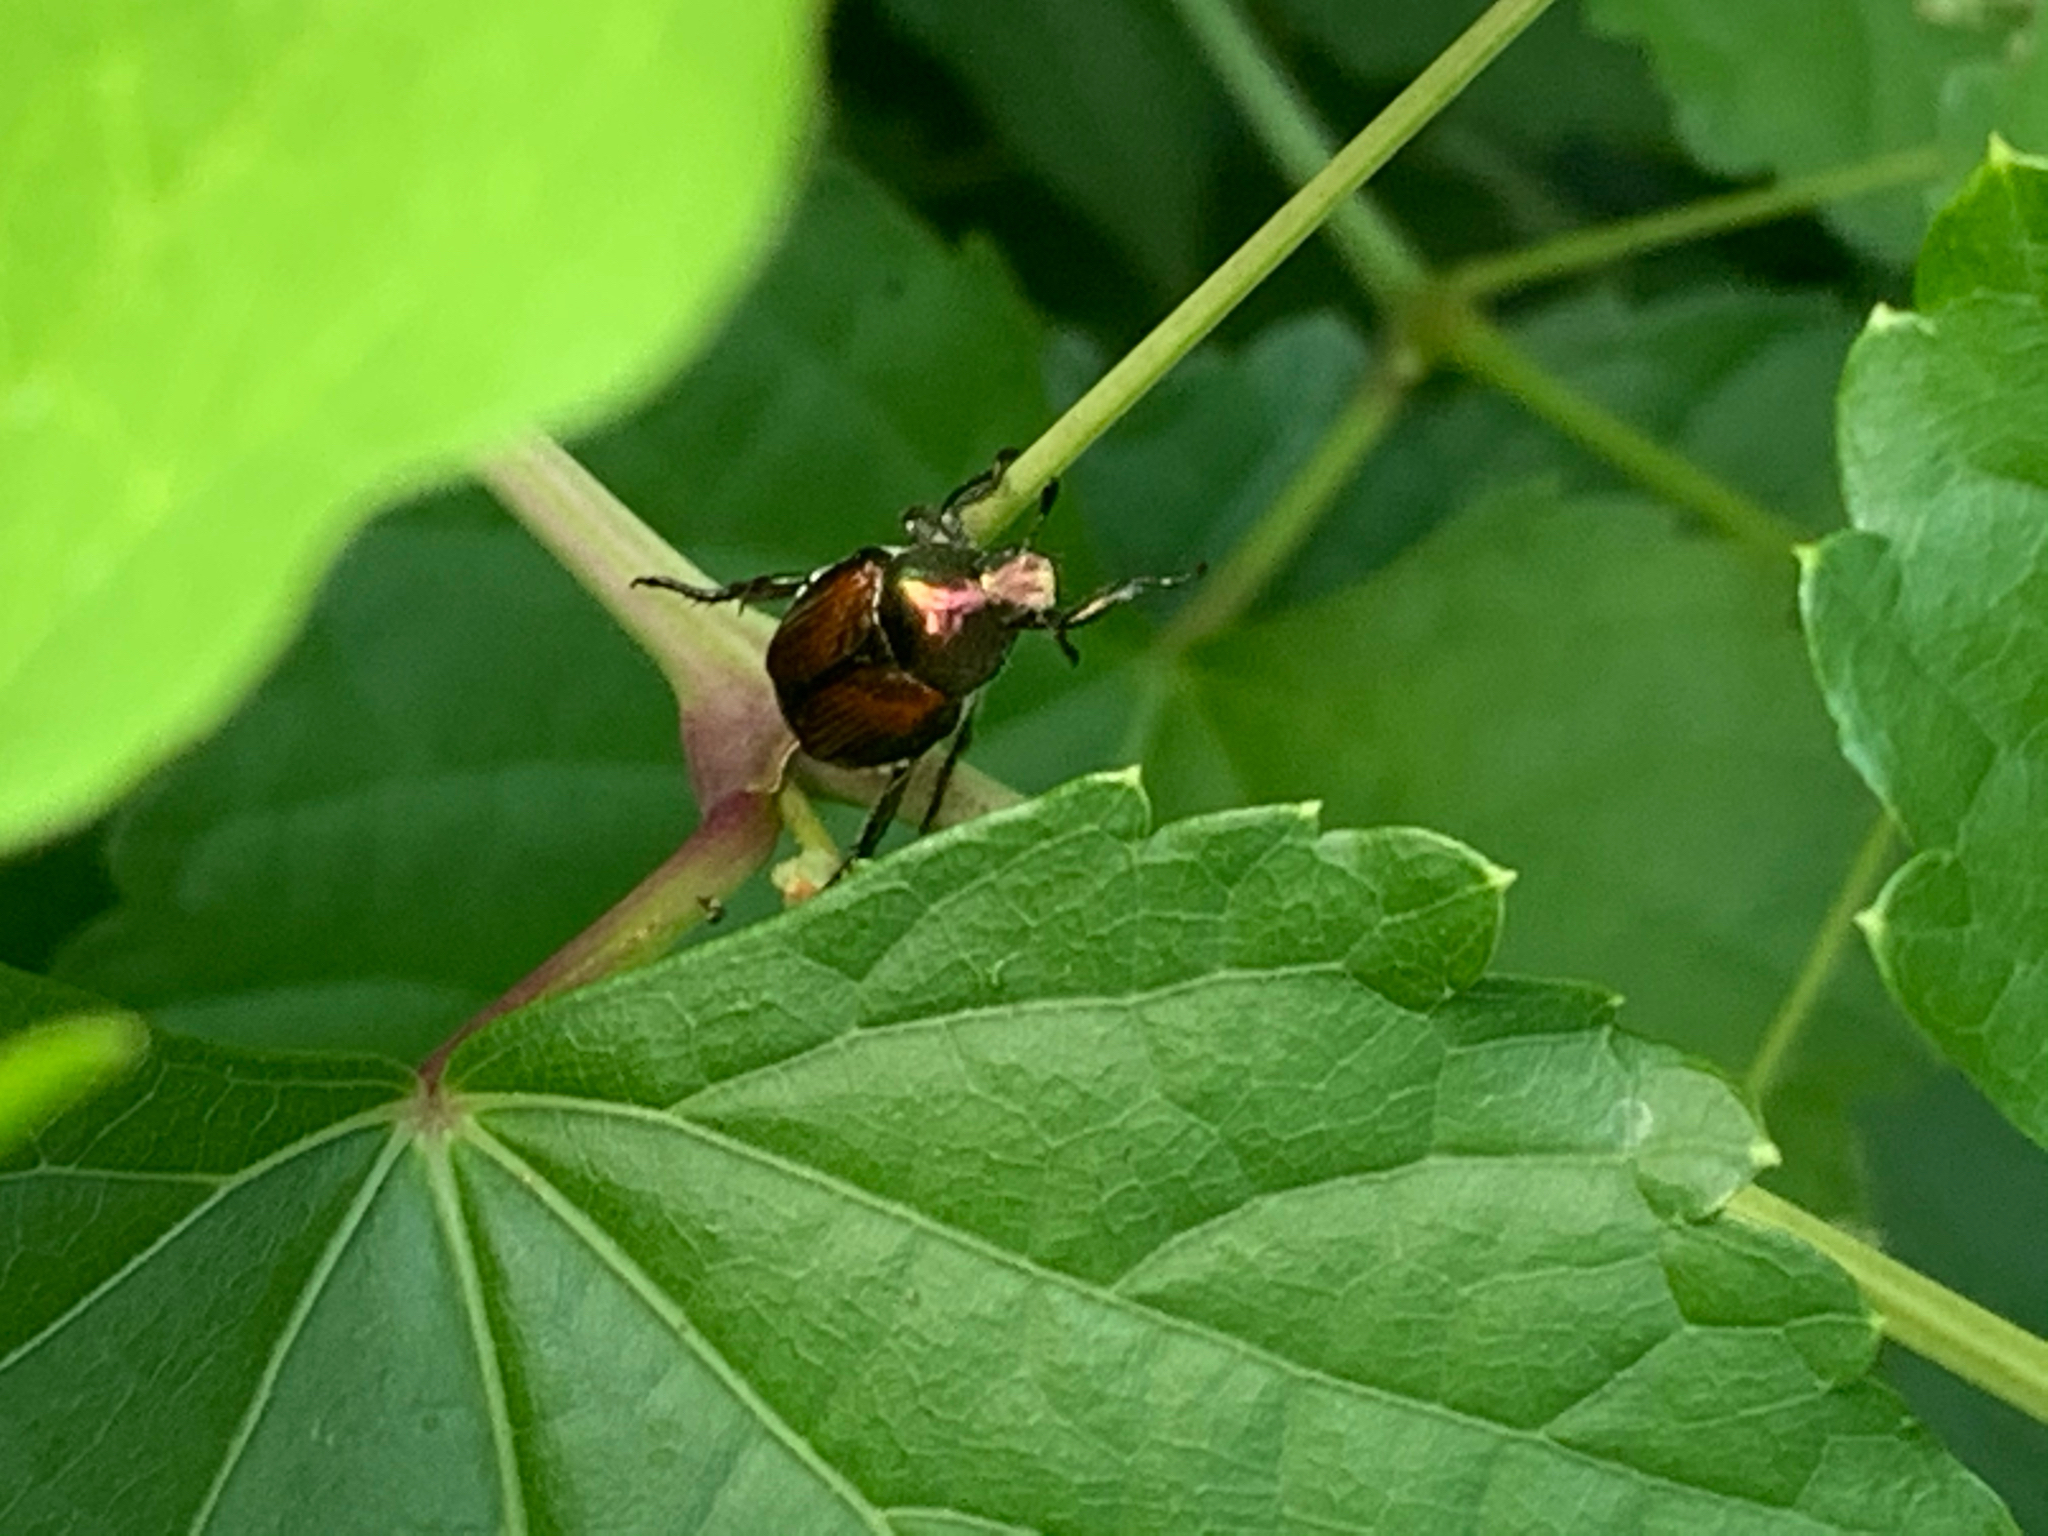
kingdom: Animalia
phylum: Arthropoda
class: Insecta
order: Coleoptera
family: Scarabaeidae
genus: Popillia
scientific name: Popillia japonica
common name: Japanese beetle
